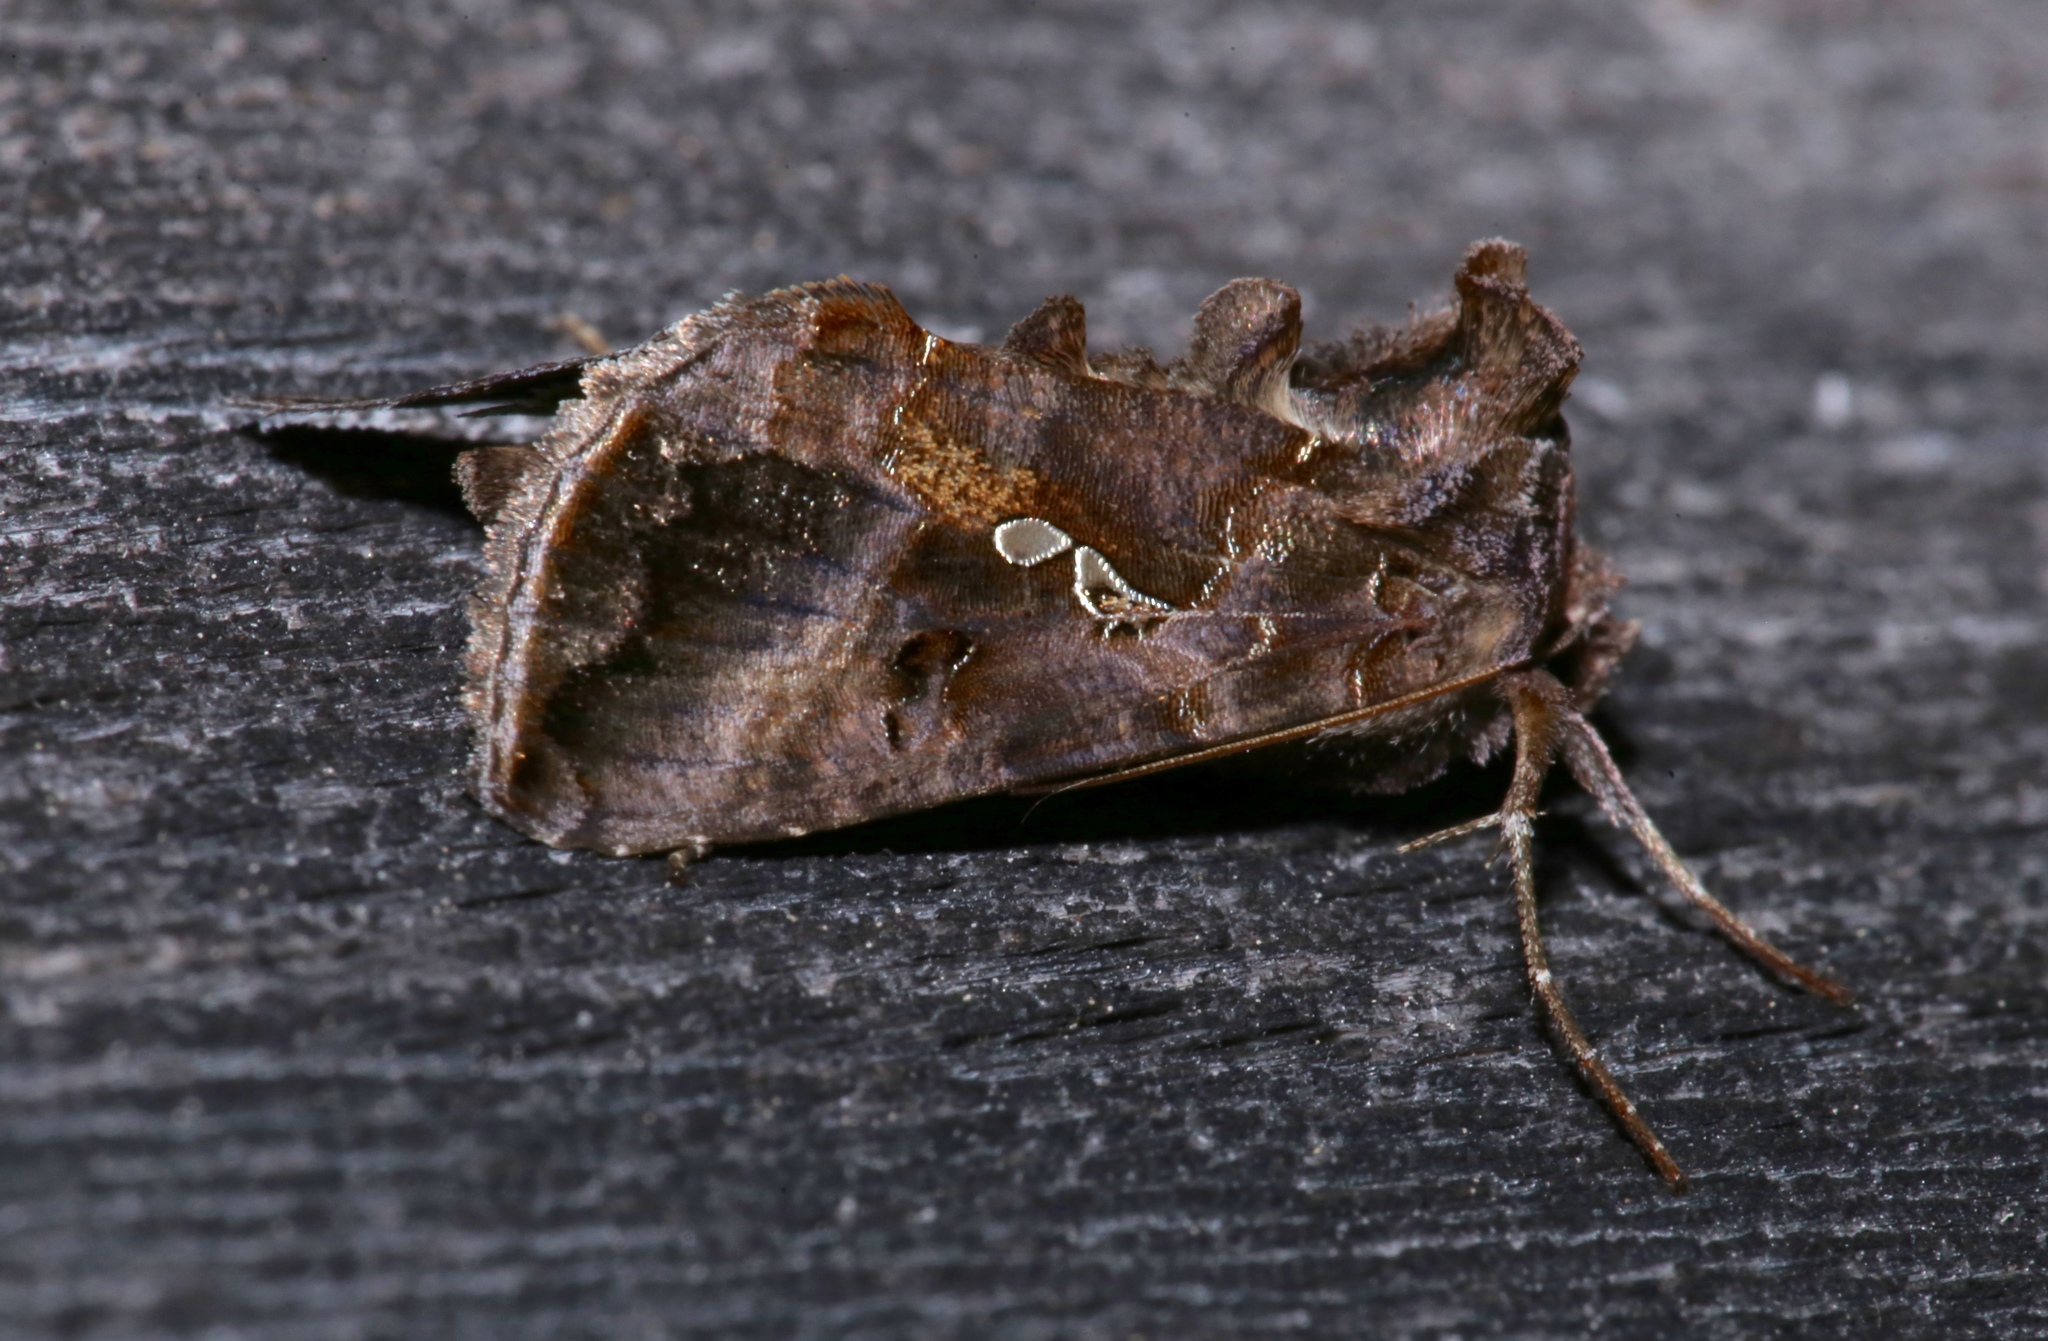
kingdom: Animalia
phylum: Arthropoda
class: Insecta
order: Lepidoptera
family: Noctuidae
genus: Autographa
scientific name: Autographa precationis
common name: Common looper moth
